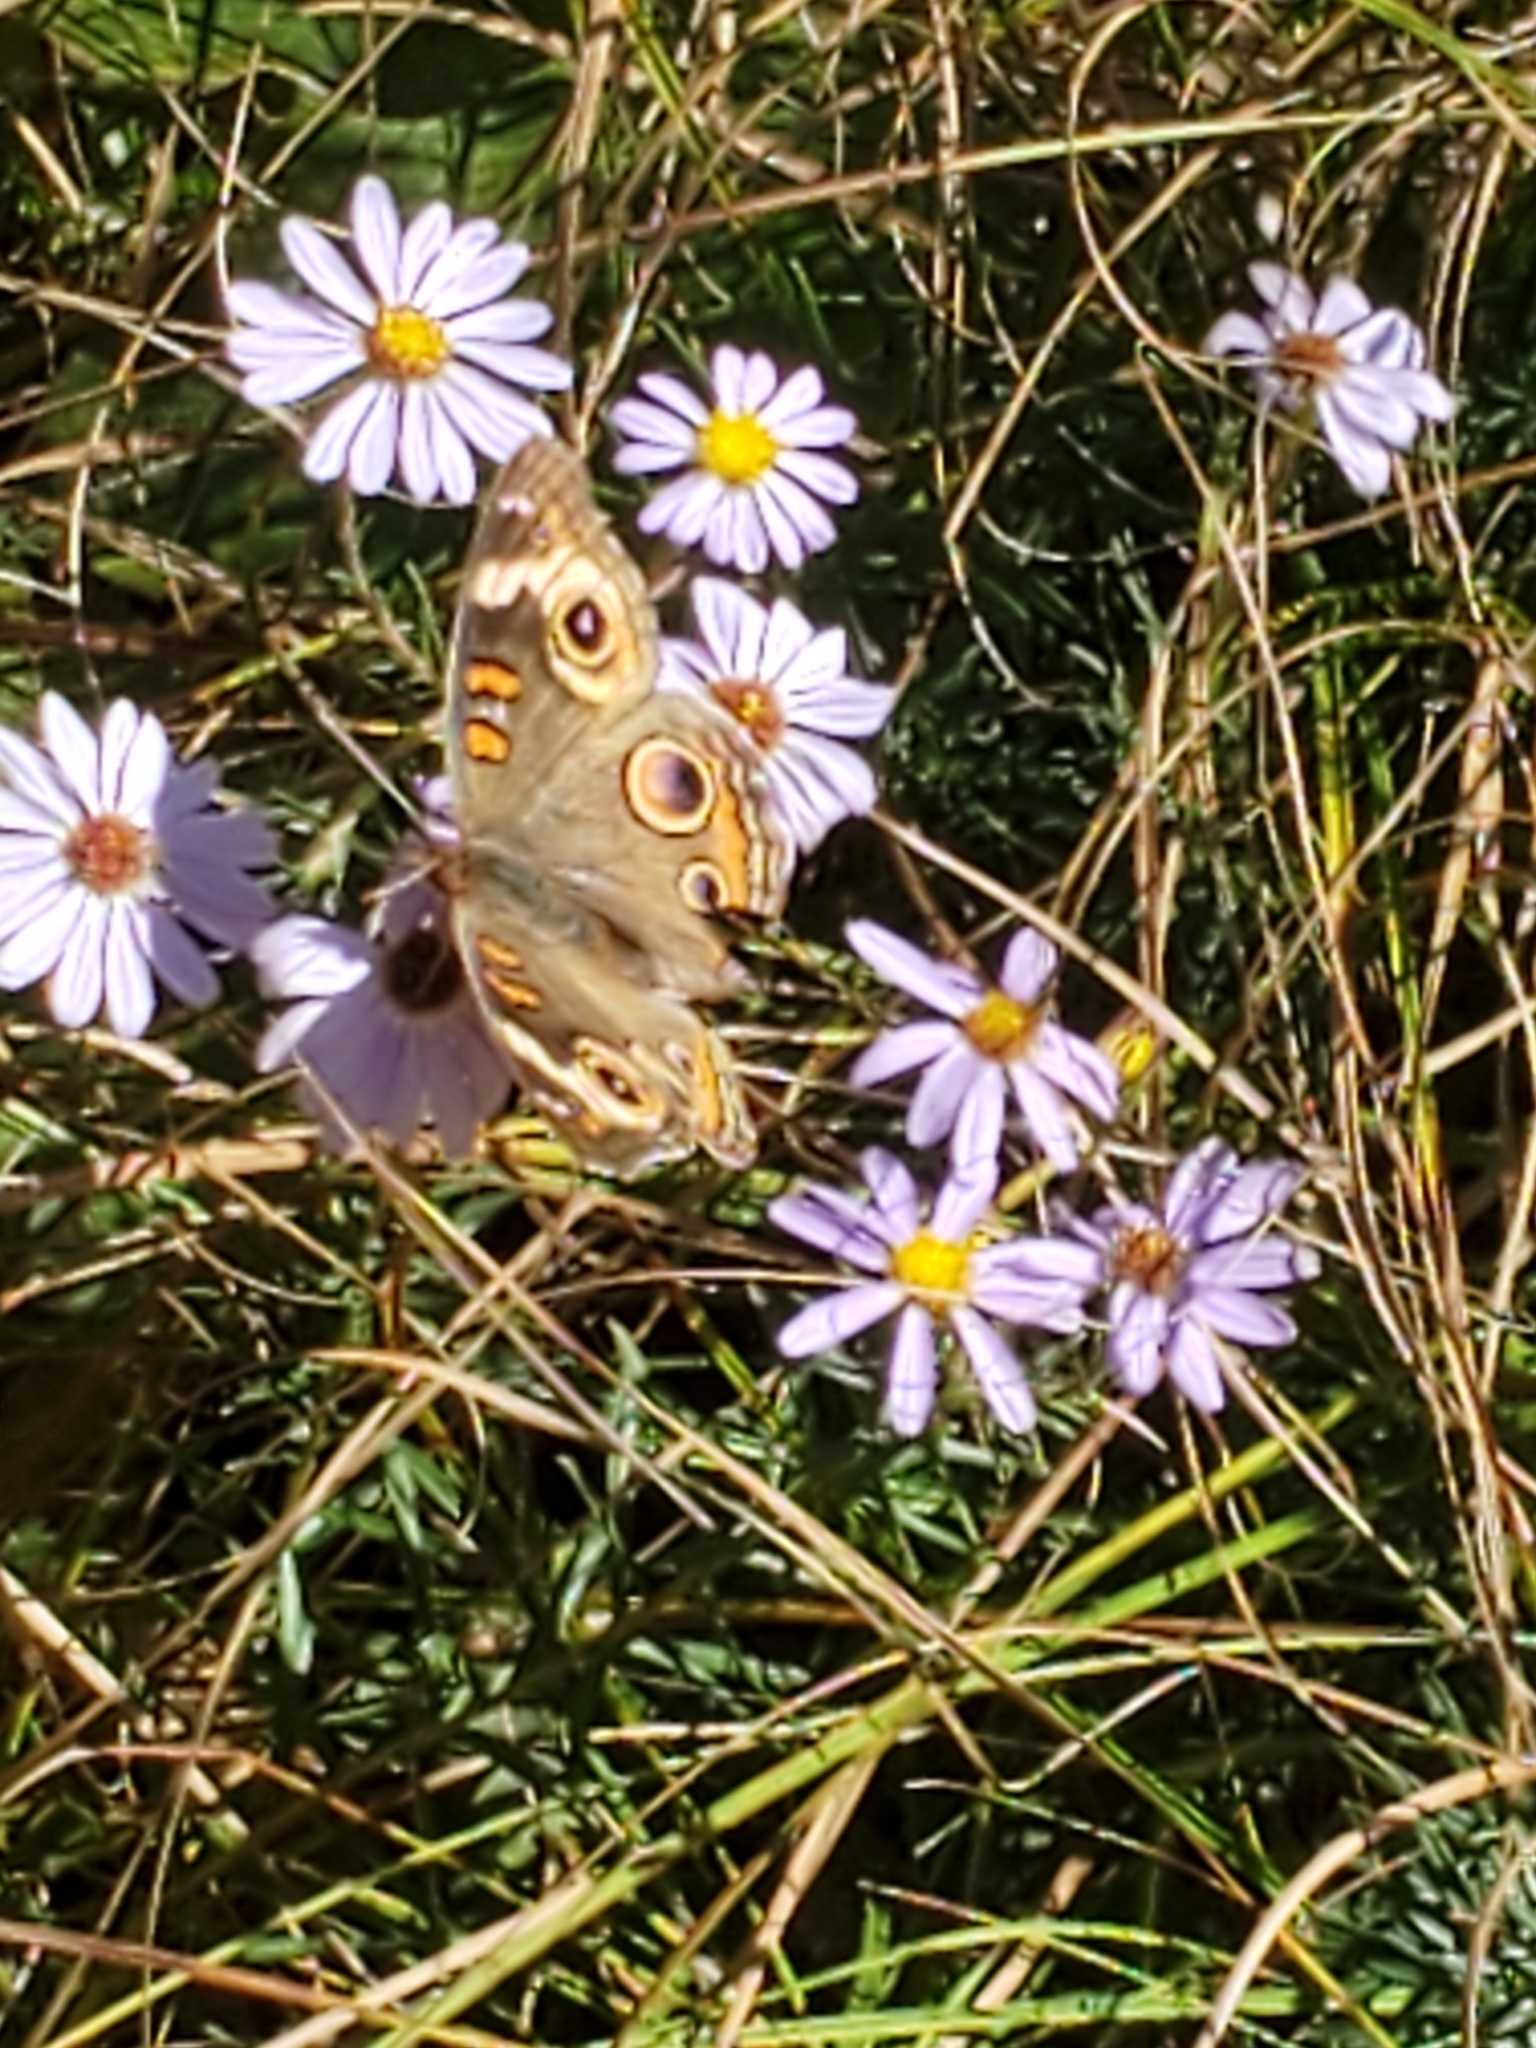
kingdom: Animalia
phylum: Arthropoda
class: Insecta
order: Lepidoptera
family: Nymphalidae
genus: Junonia
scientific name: Junonia coenia
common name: Common buckeye
